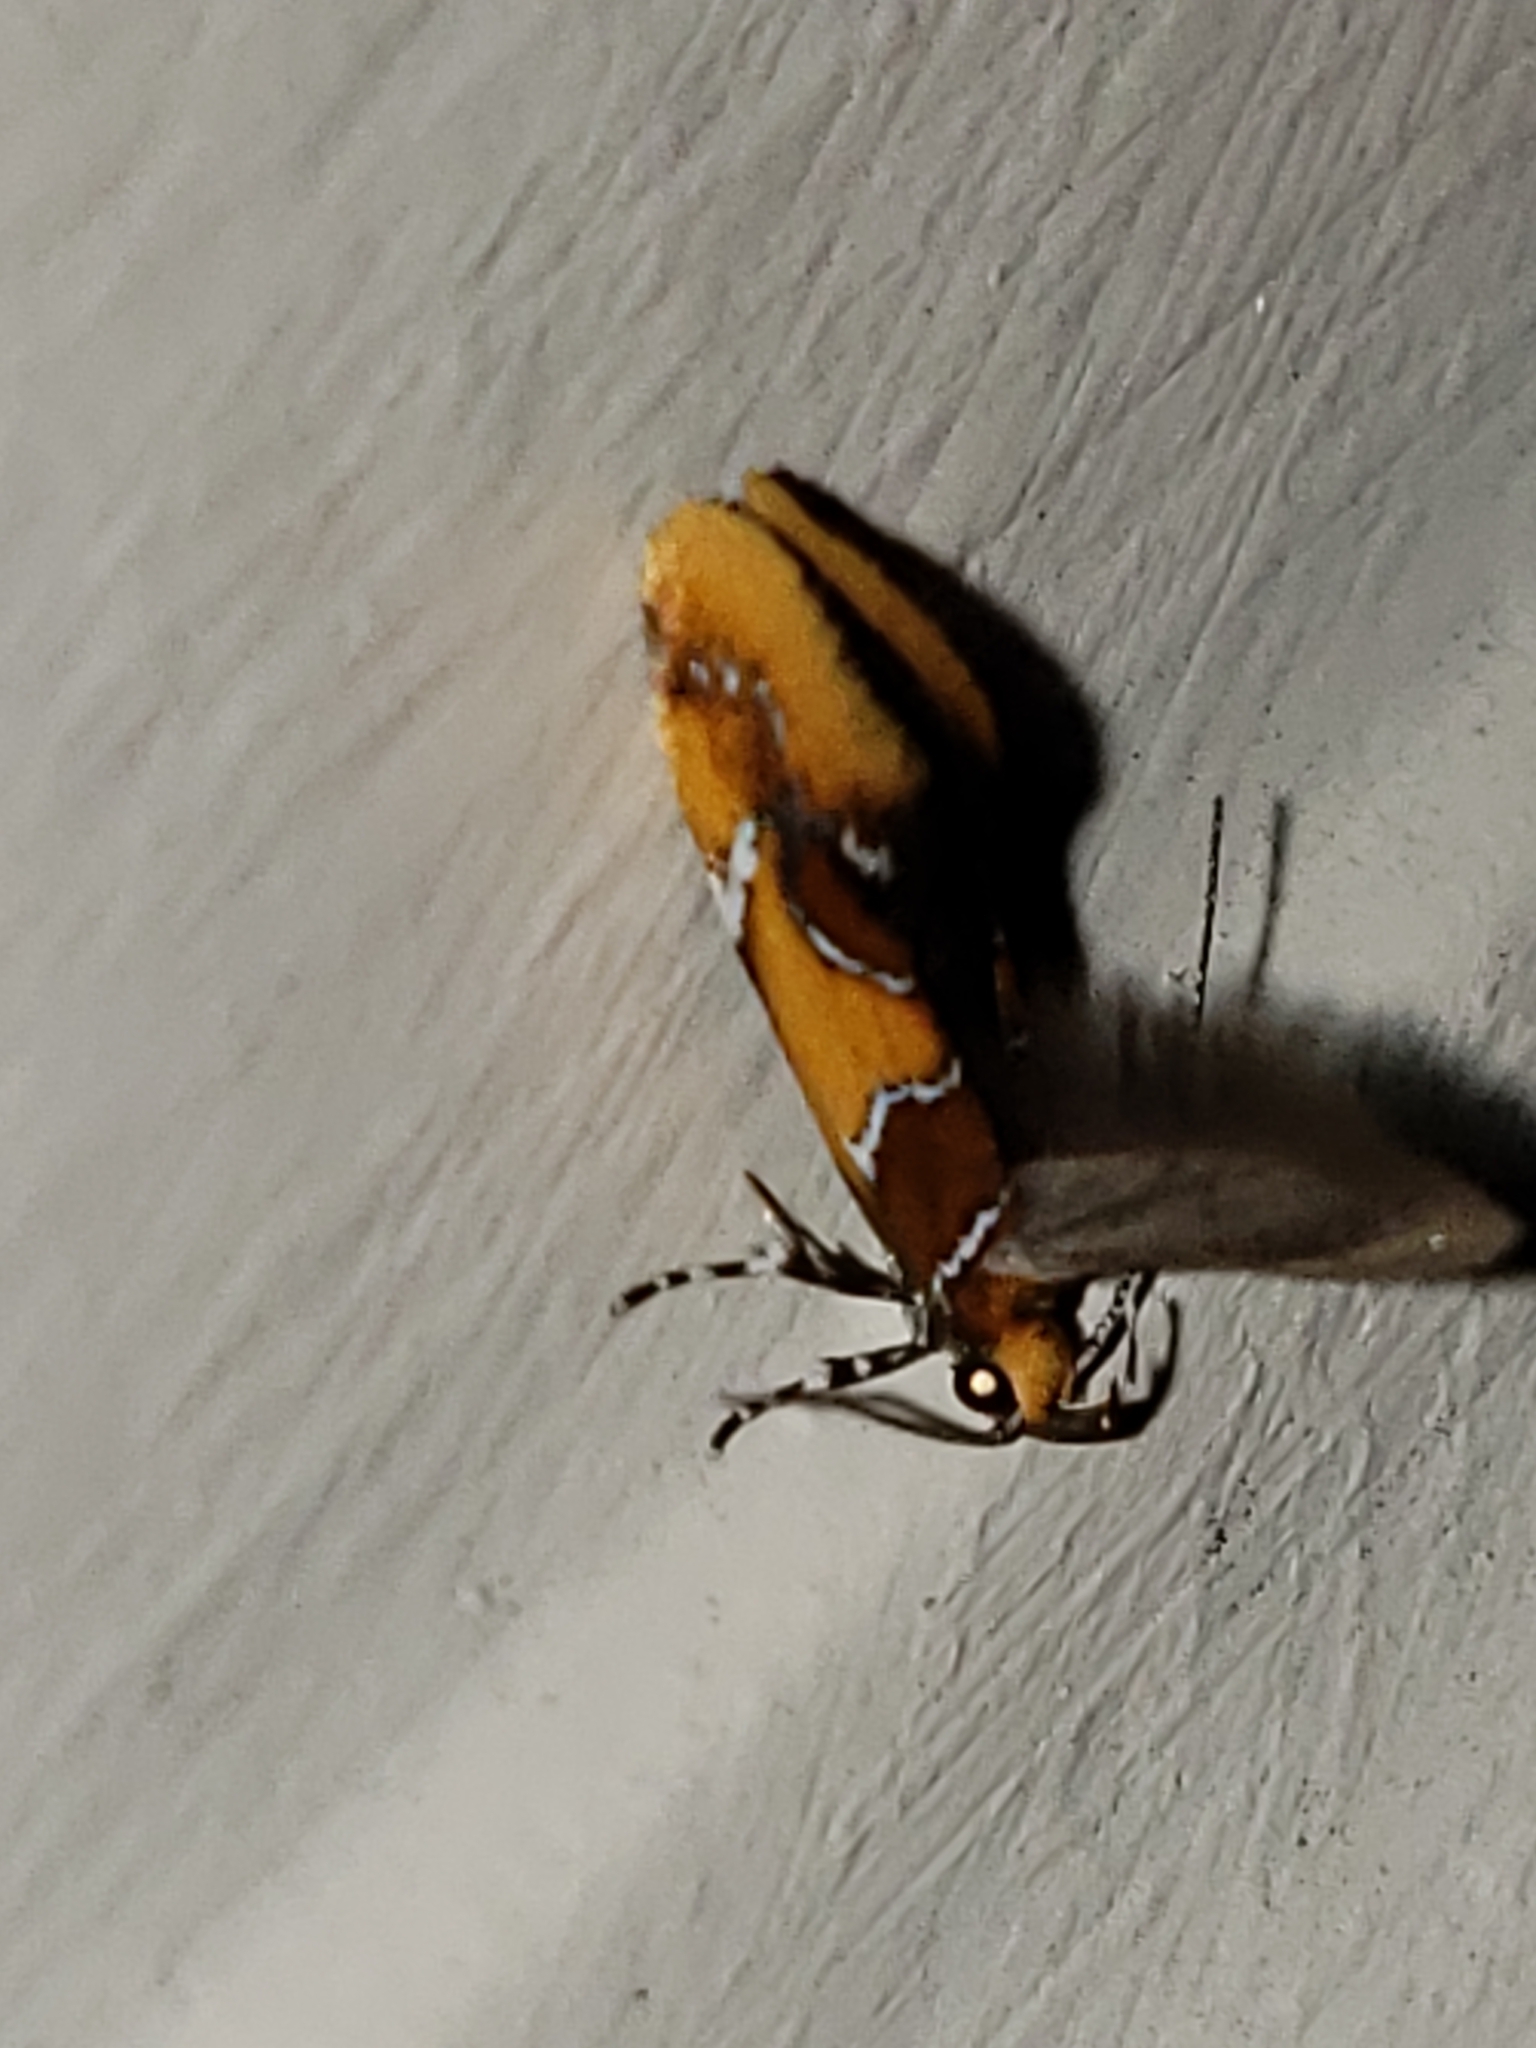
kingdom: Animalia
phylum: Arthropoda
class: Insecta
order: Lepidoptera
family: Oecophoridae
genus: Callima
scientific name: Callima argenticinctella
